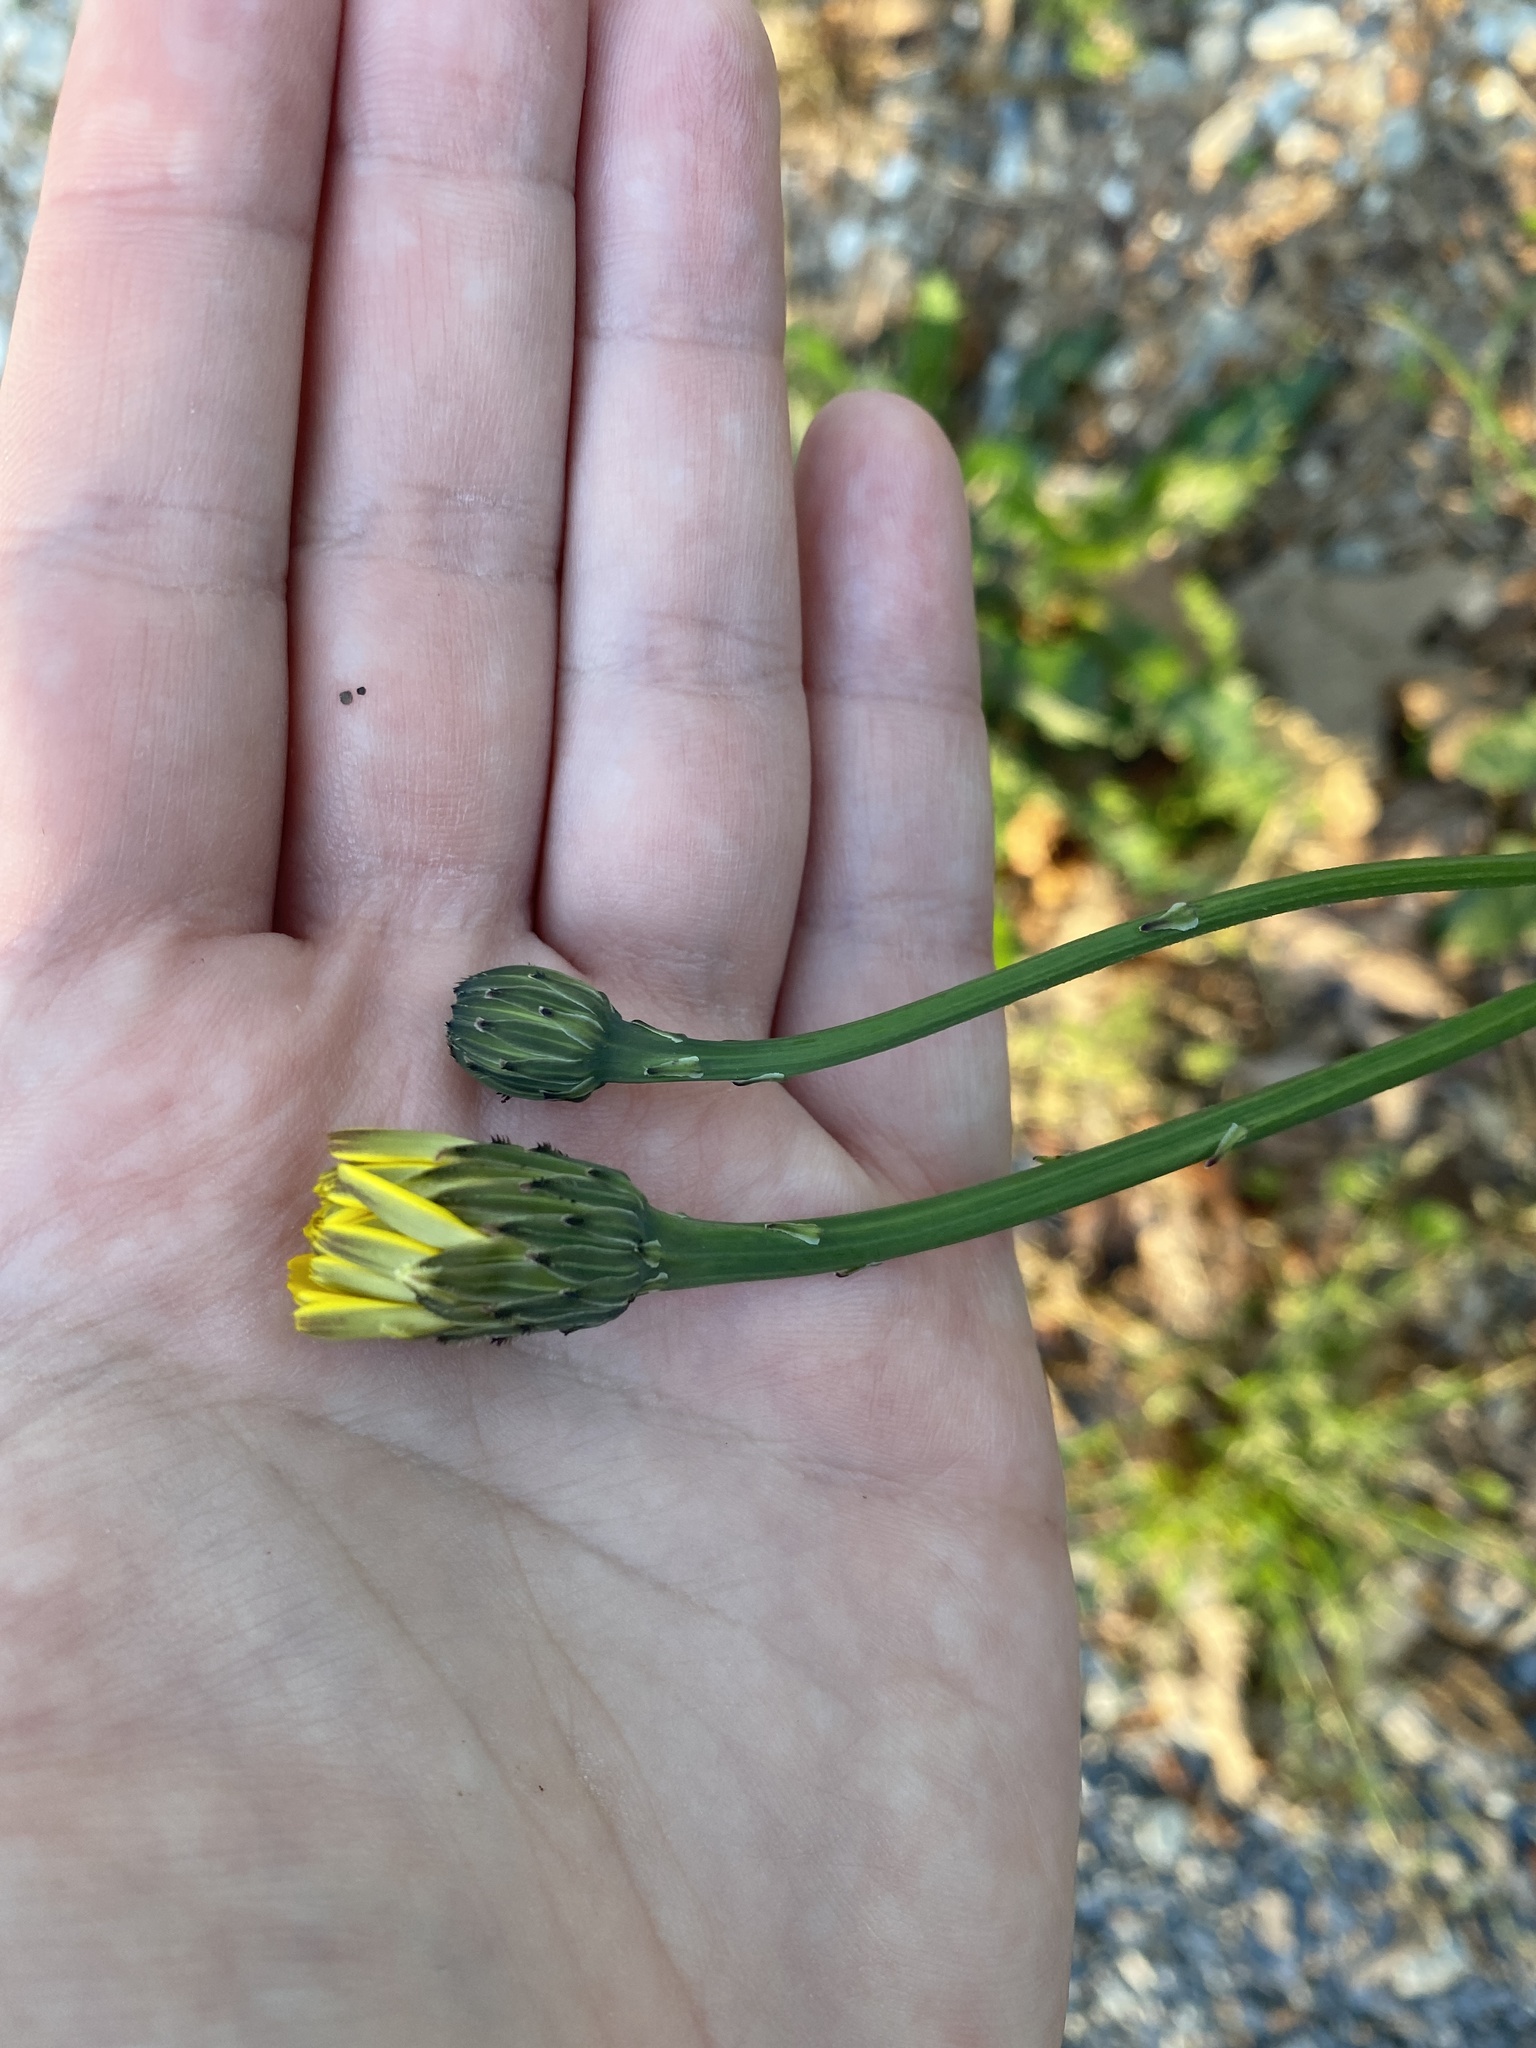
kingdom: Plantae
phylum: Tracheophyta
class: Magnoliopsida
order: Asterales
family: Asteraceae
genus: Hypochaeris
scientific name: Hypochaeris radicata
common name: Flatweed
